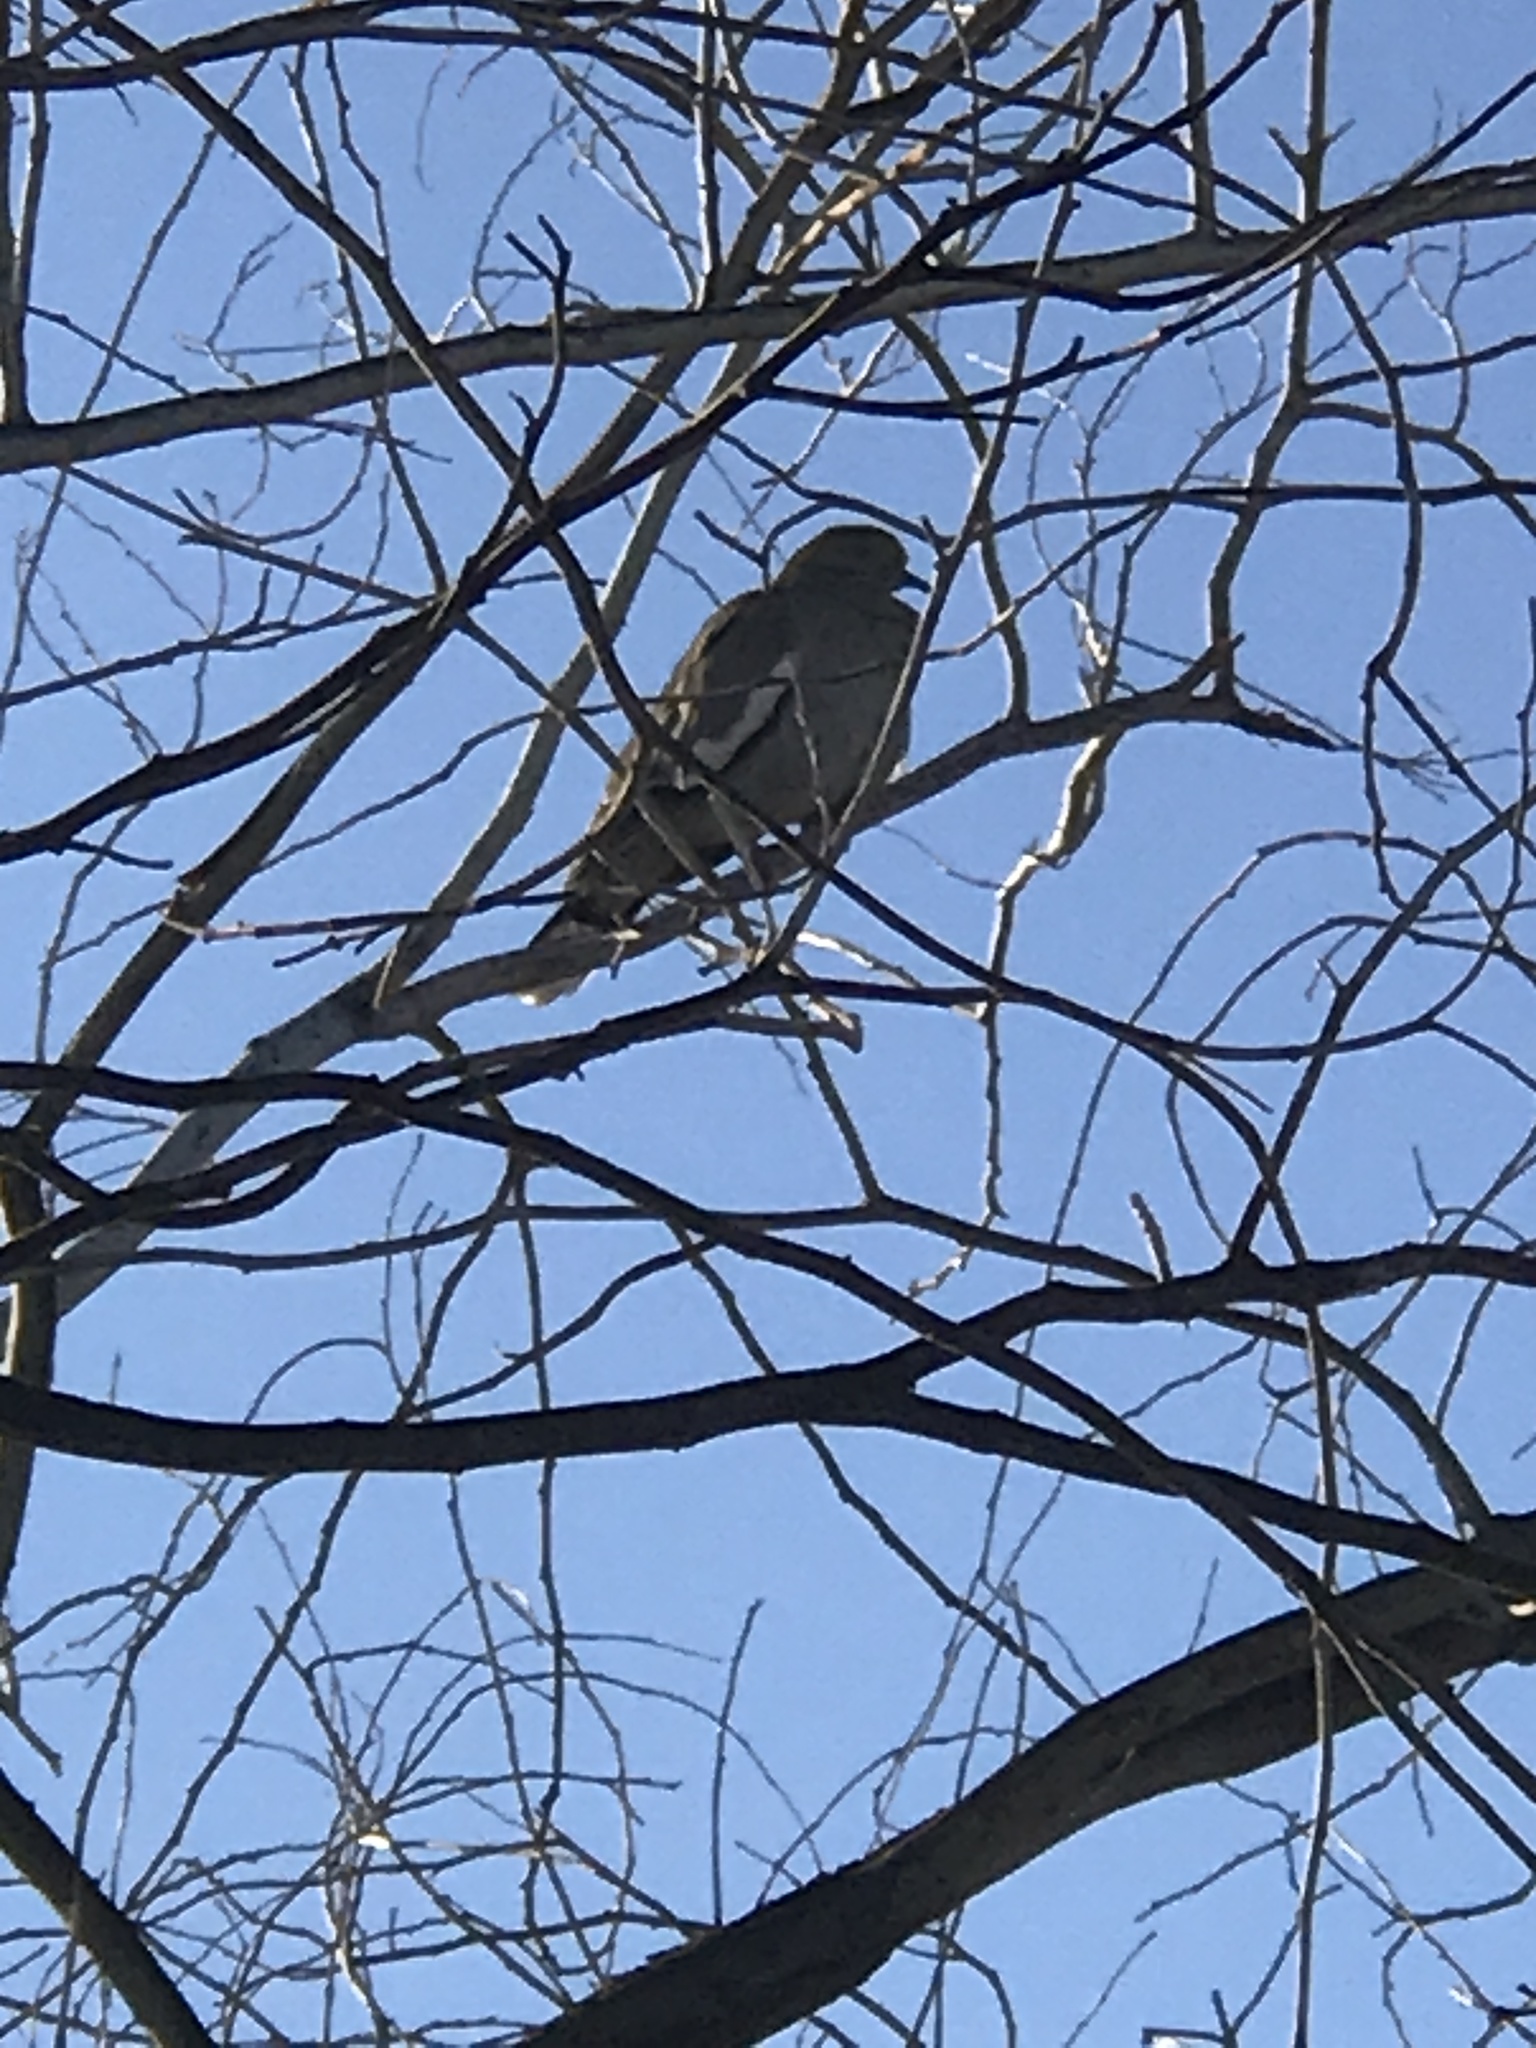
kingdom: Animalia
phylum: Chordata
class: Aves
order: Columbiformes
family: Columbidae
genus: Zenaida
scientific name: Zenaida asiatica
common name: White-winged dove
